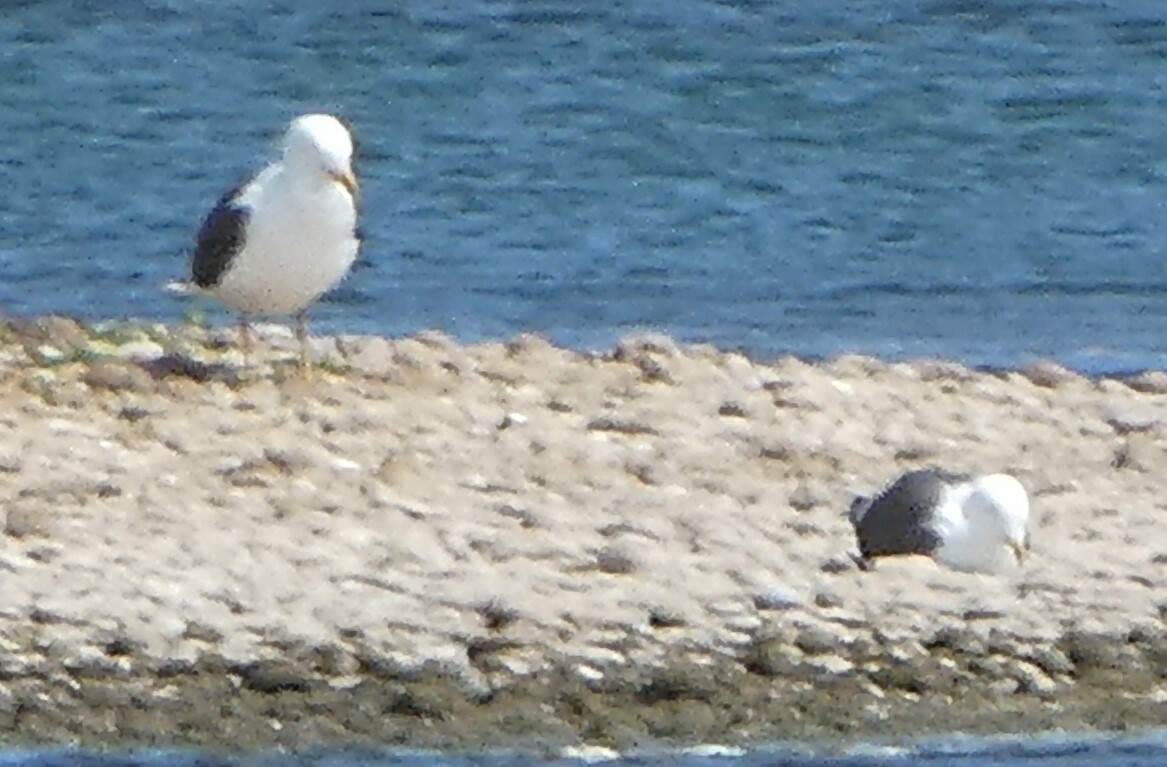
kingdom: Animalia
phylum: Chordata
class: Aves
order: Charadriiformes
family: Laridae
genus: Larus
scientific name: Larus fuscus
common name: Lesser black-backed gull
